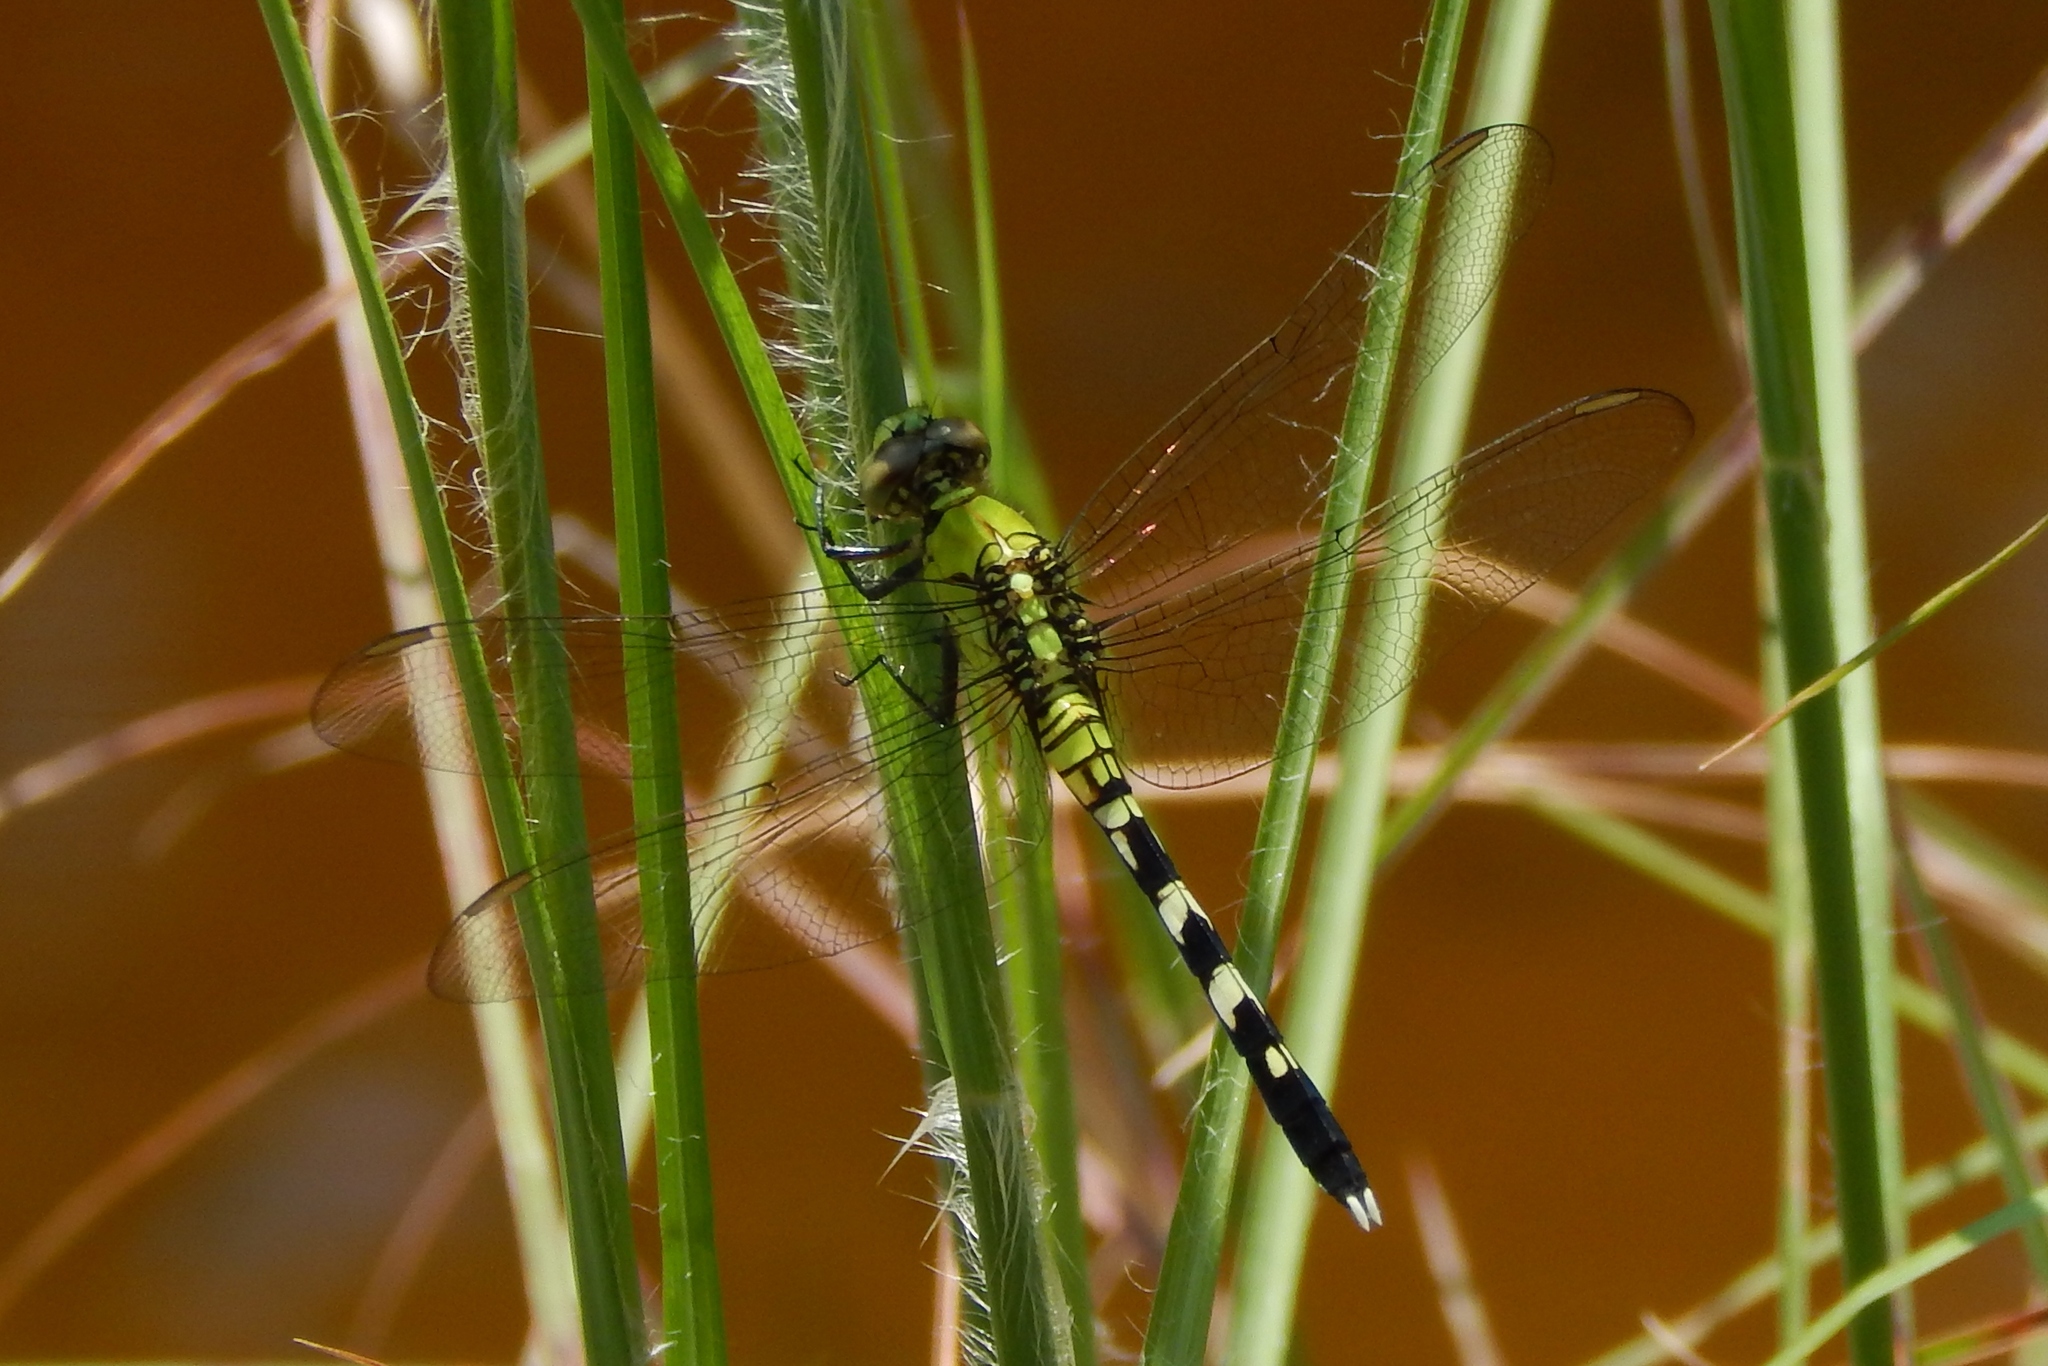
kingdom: Animalia
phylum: Arthropoda
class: Insecta
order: Odonata
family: Libellulidae
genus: Erythemis
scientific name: Erythemis simplicicollis
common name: Eastern pondhawk
